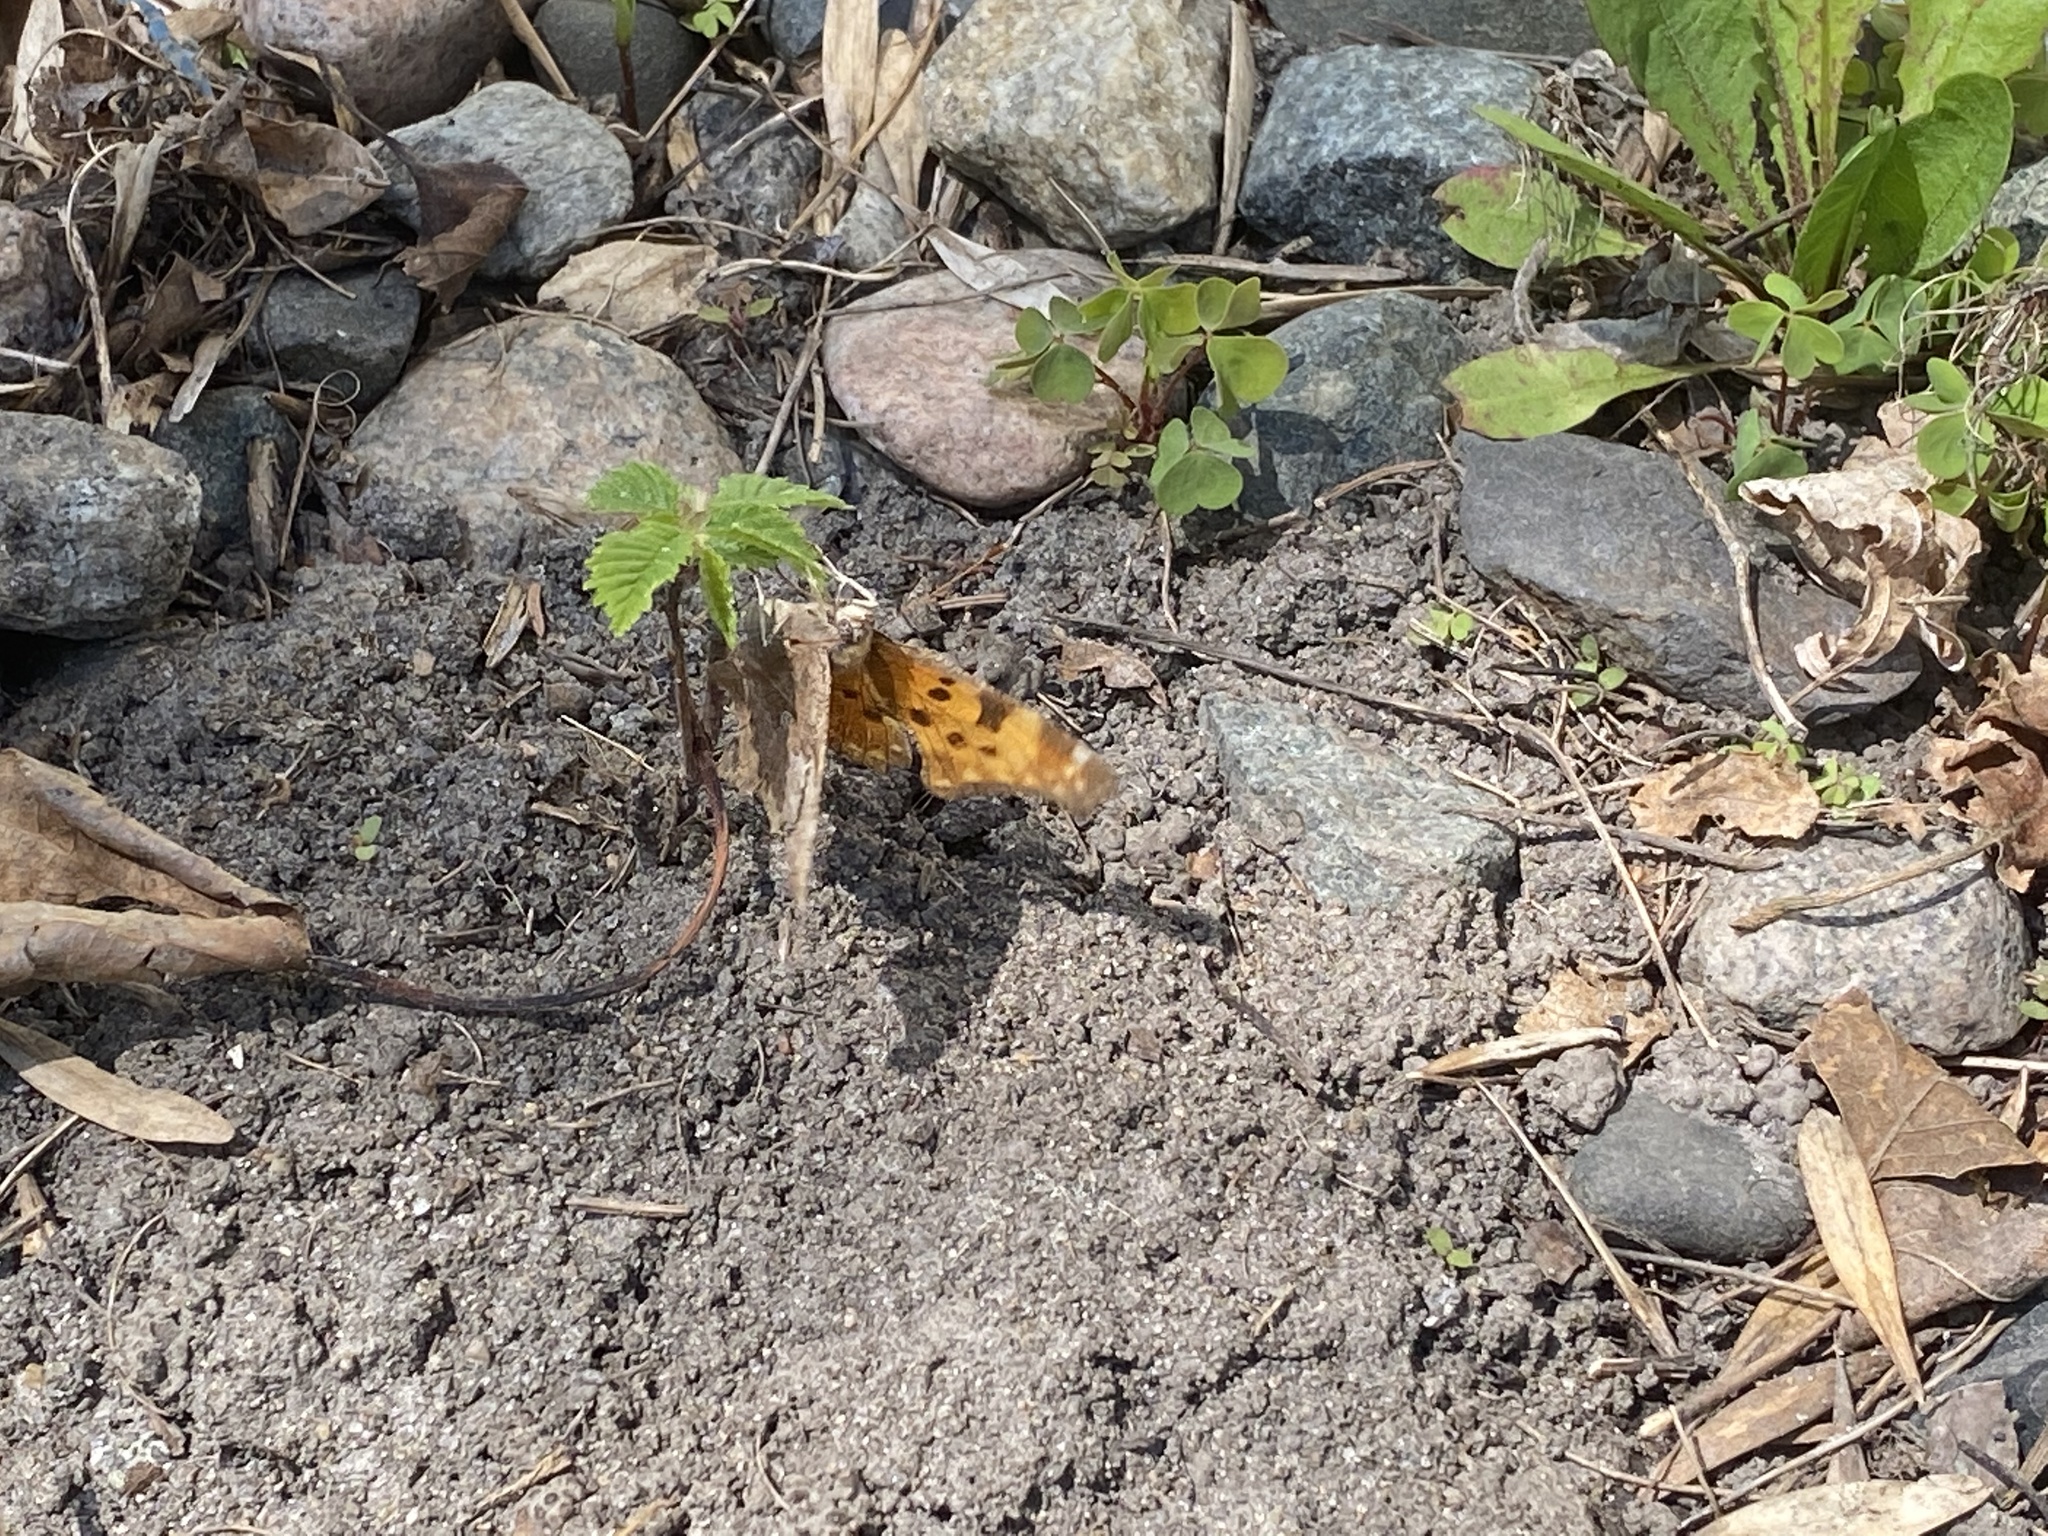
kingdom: Animalia
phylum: Arthropoda
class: Insecta
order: Lepidoptera
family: Nymphalidae
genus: Polygonia
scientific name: Polygonia comma
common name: Eastern comma
